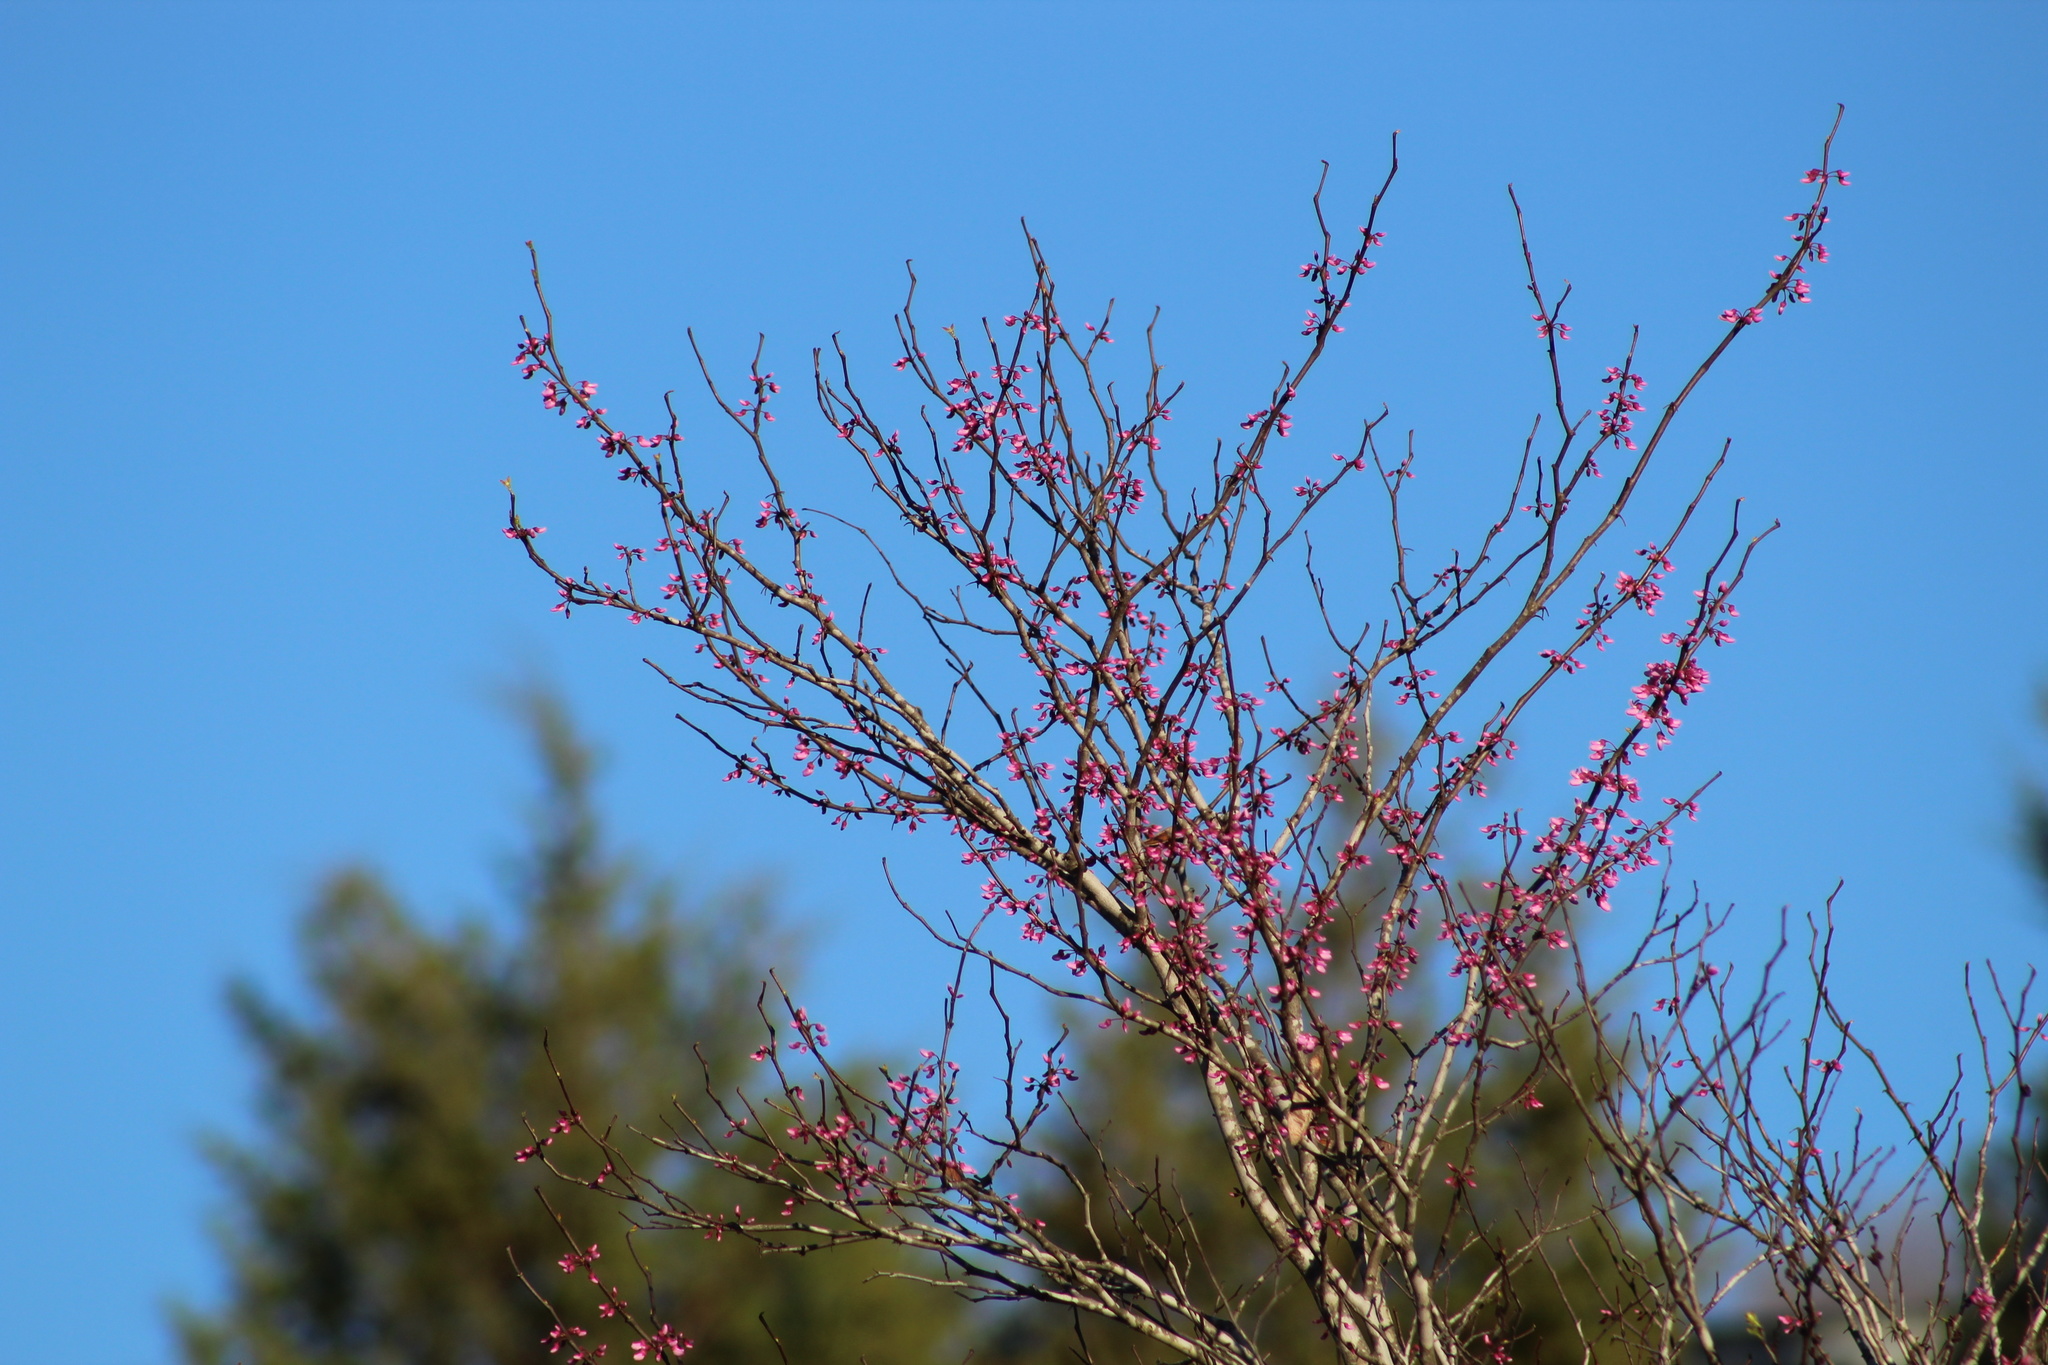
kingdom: Plantae
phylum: Tracheophyta
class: Magnoliopsida
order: Fabales
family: Fabaceae
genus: Cercis
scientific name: Cercis canadensis
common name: Eastern redbud
